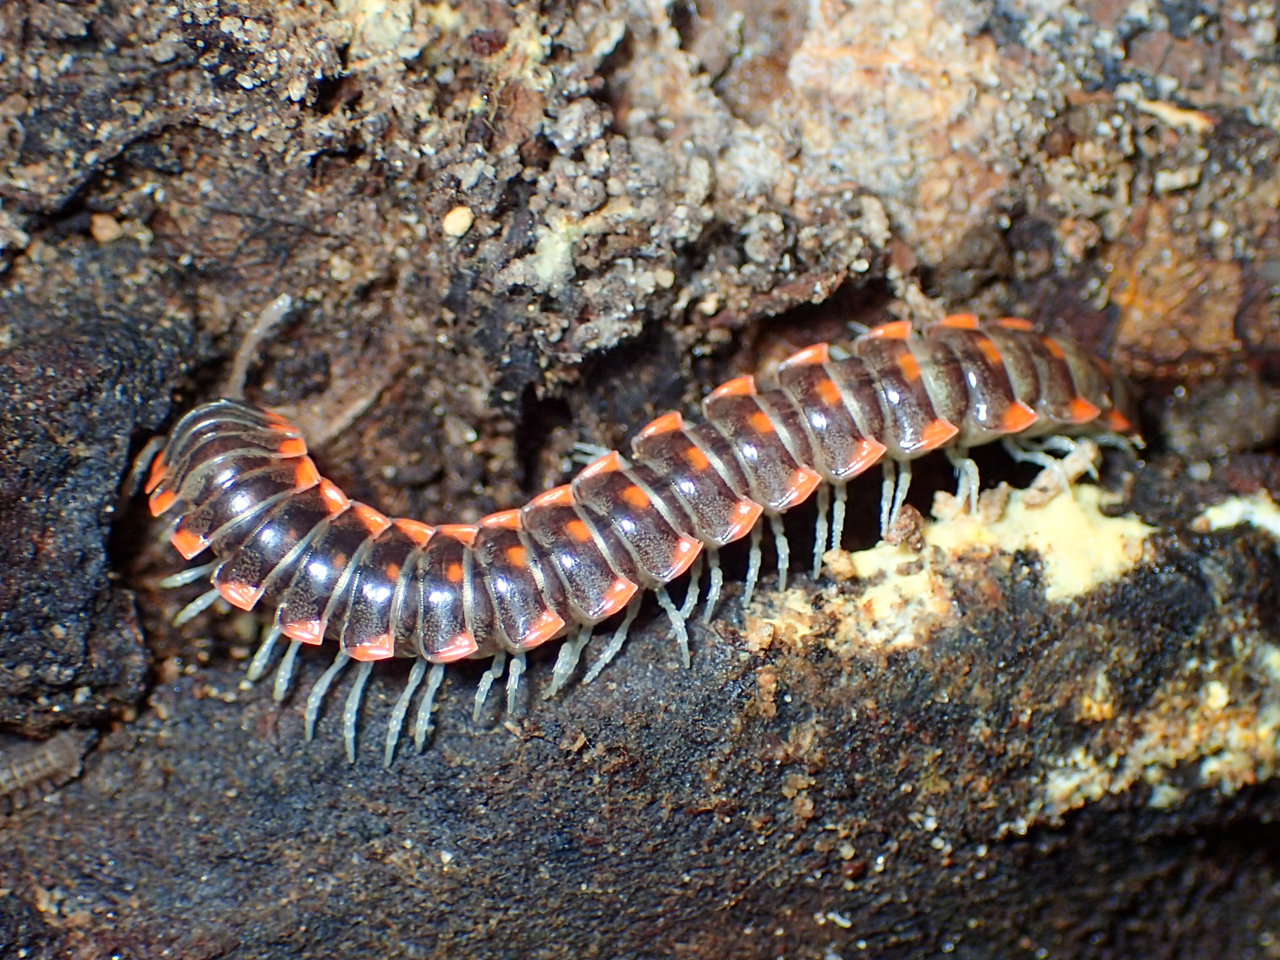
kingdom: Animalia
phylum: Arthropoda
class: Diplopoda
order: Polydesmida
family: Xystodesmidae
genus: Euryurus
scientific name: Euryurus maculatus
